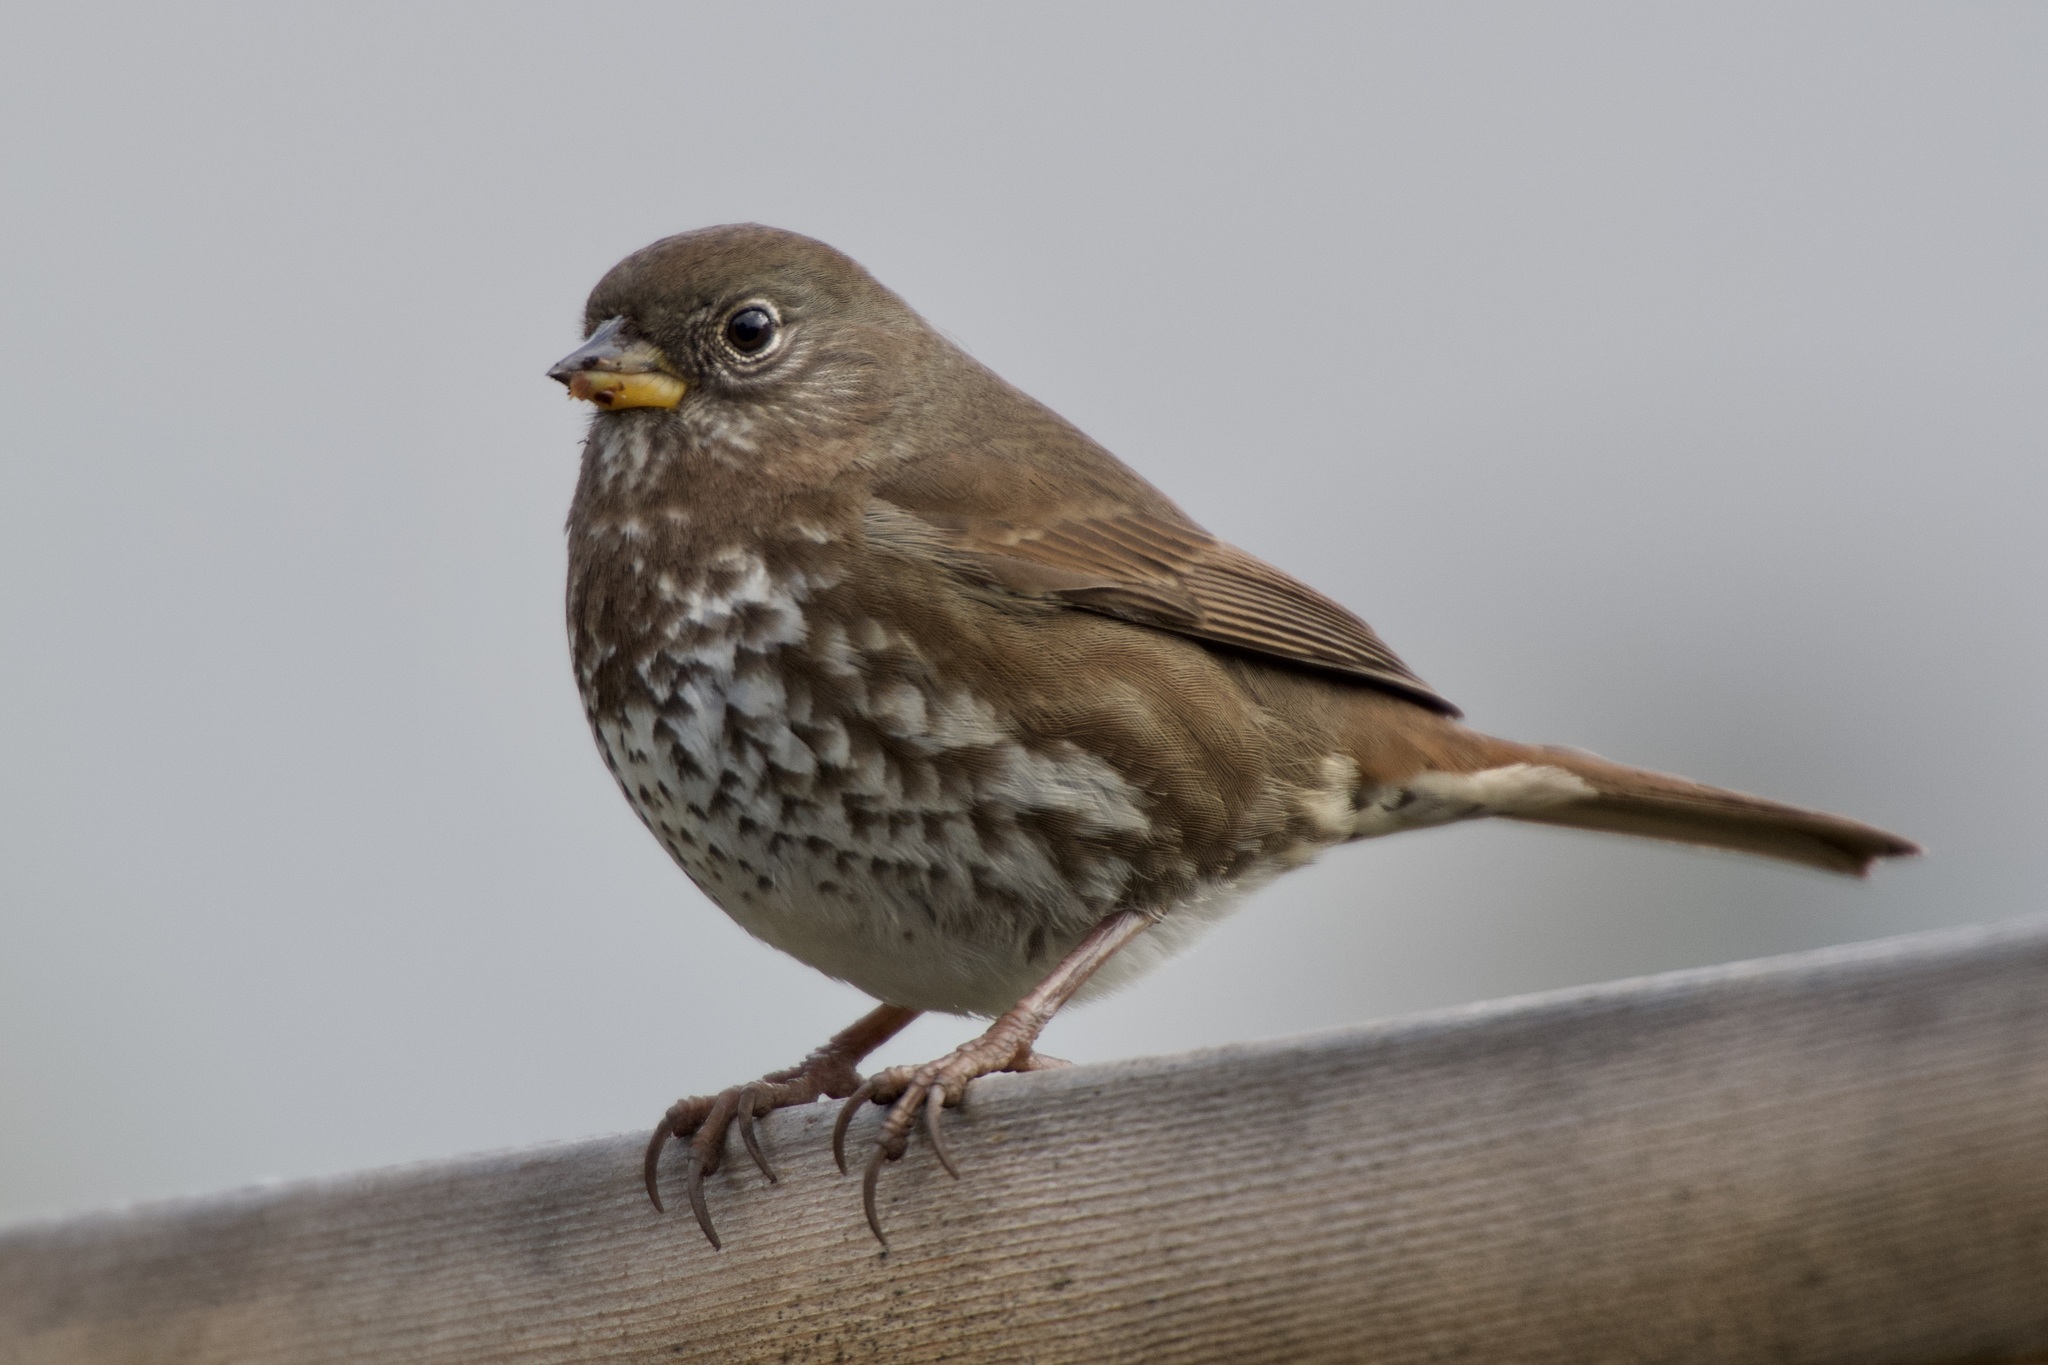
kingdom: Animalia
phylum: Chordata
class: Aves
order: Passeriformes
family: Passerellidae
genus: Passerella
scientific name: Passerella iliaca
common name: Fox sparrow
